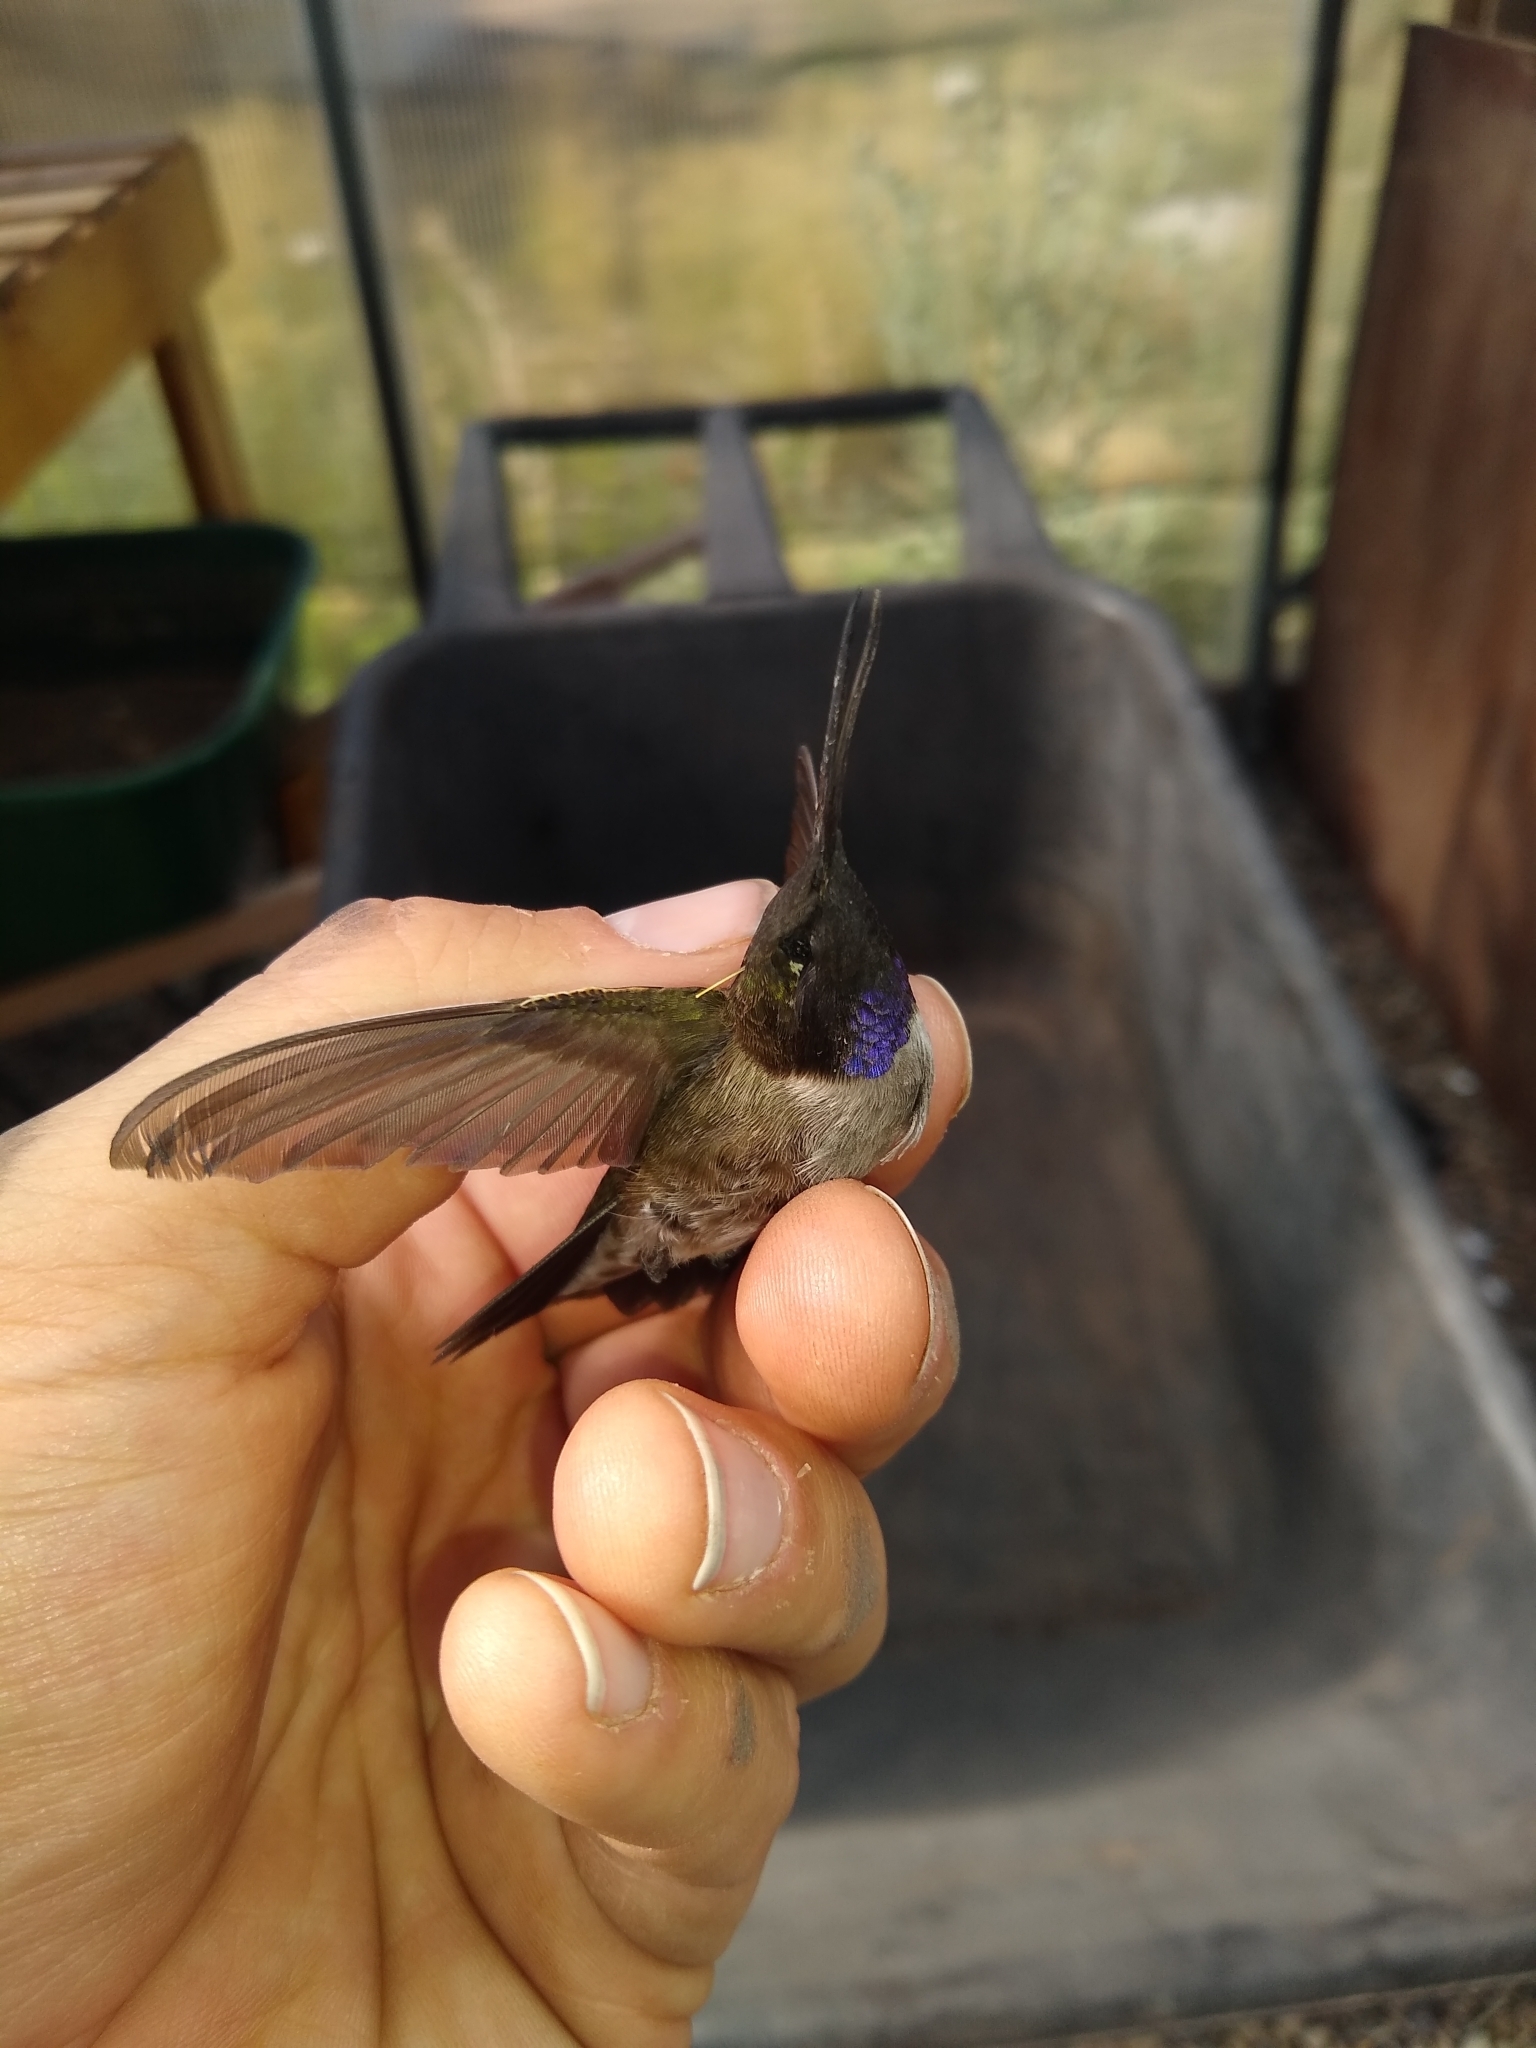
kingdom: Animalia
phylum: Chordata
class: Aves
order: Apodiformes
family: Trochilidae
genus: Archilochus
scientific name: Archilochus alexandri
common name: Black-chinned hummingbird
